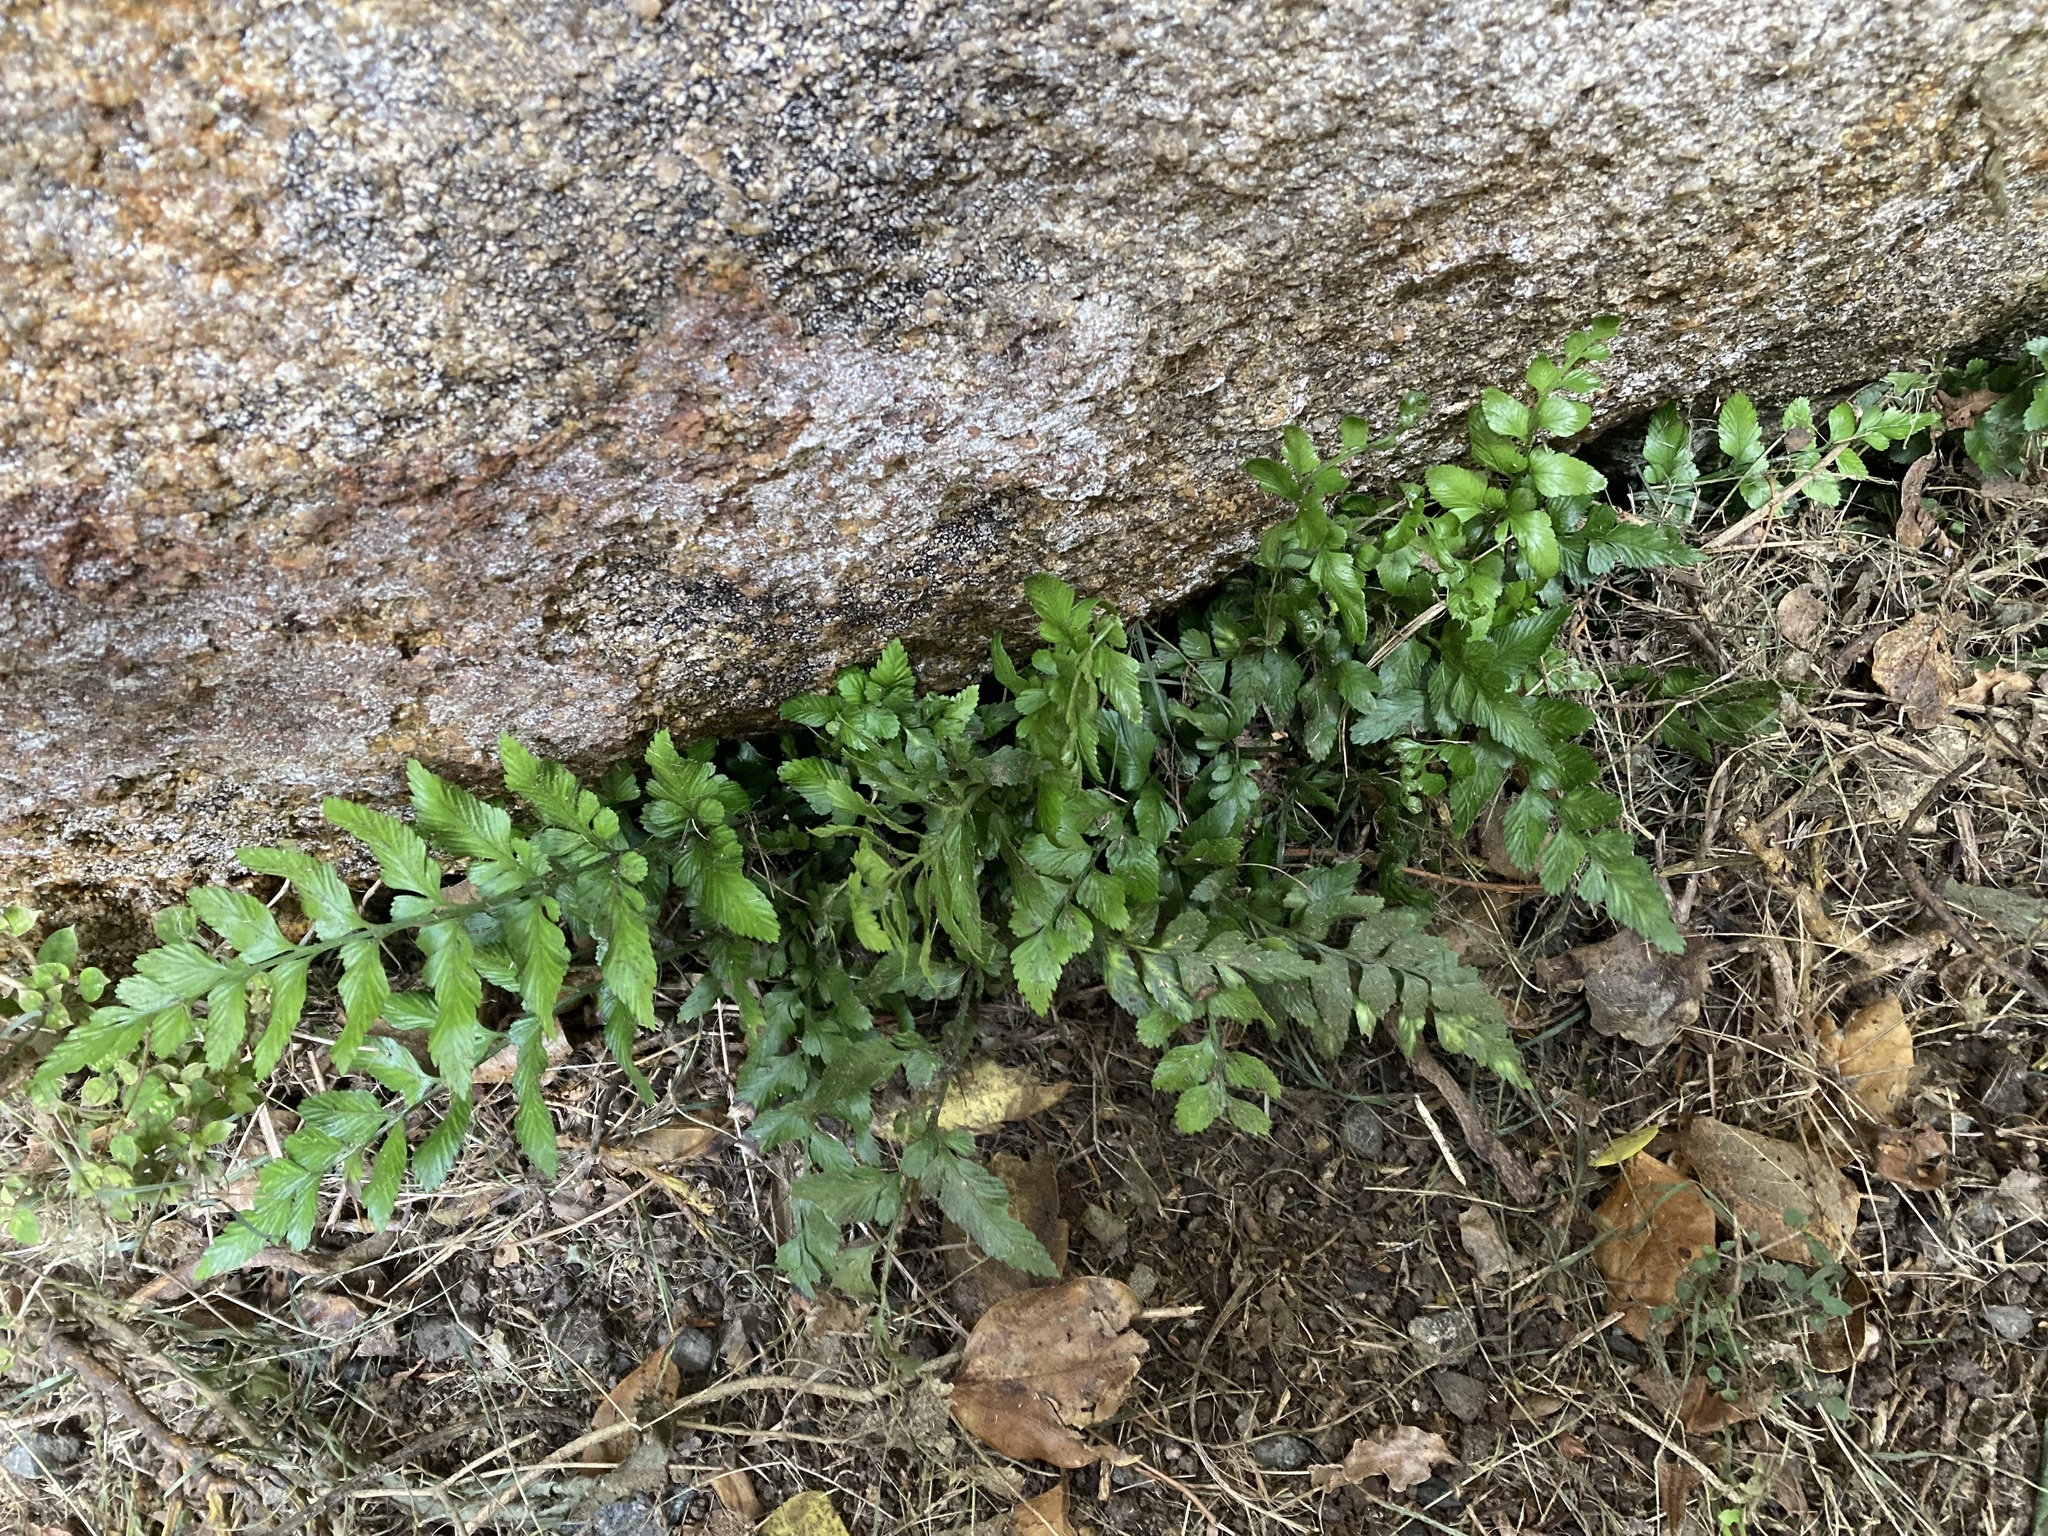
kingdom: Plantae
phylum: Tracheophyta
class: Polypodiopsida
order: Polypodiales
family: Aspleniaceae
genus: Asplenium
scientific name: Asplenium lyallii
